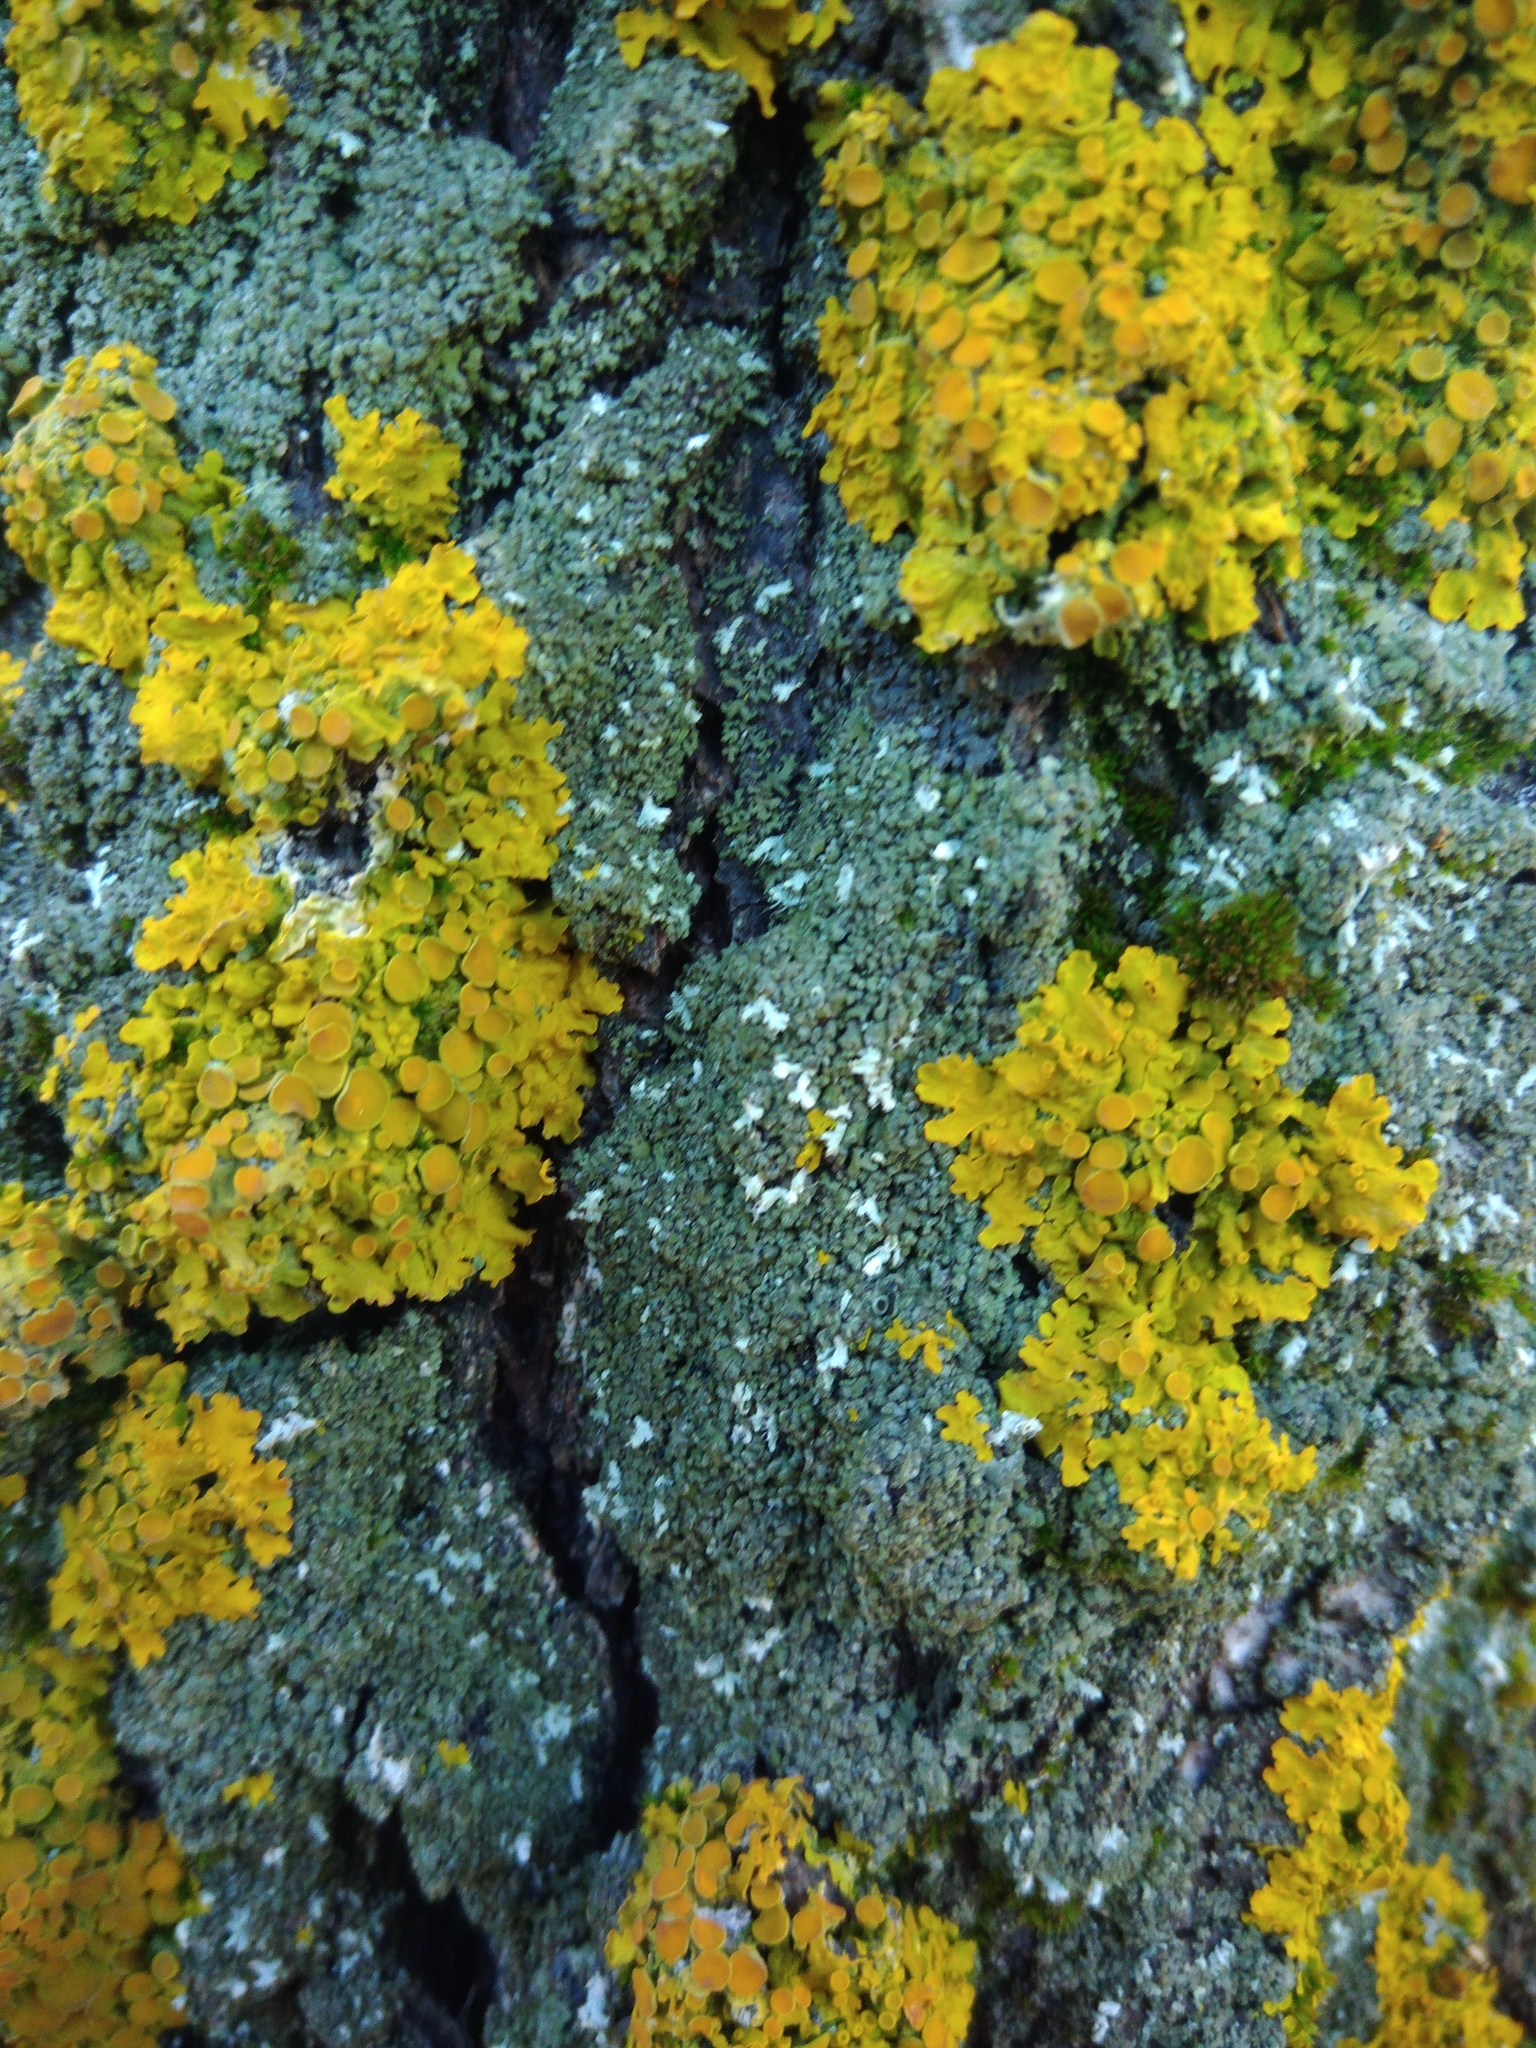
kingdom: Fungi
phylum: Ascomycota
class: Lecanoromycetes
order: Teloschistales
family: Teloschistaceae
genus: Xanthoria
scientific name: Xanthoria parietina
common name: Common orange lichen
